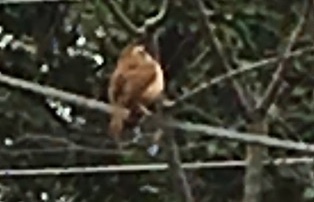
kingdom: Animalia
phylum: Chordata
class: Aves
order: Passeriformes
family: Troglodytidae
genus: Thryothorus
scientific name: Thryothorus ludovicianus
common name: Carolina wren
